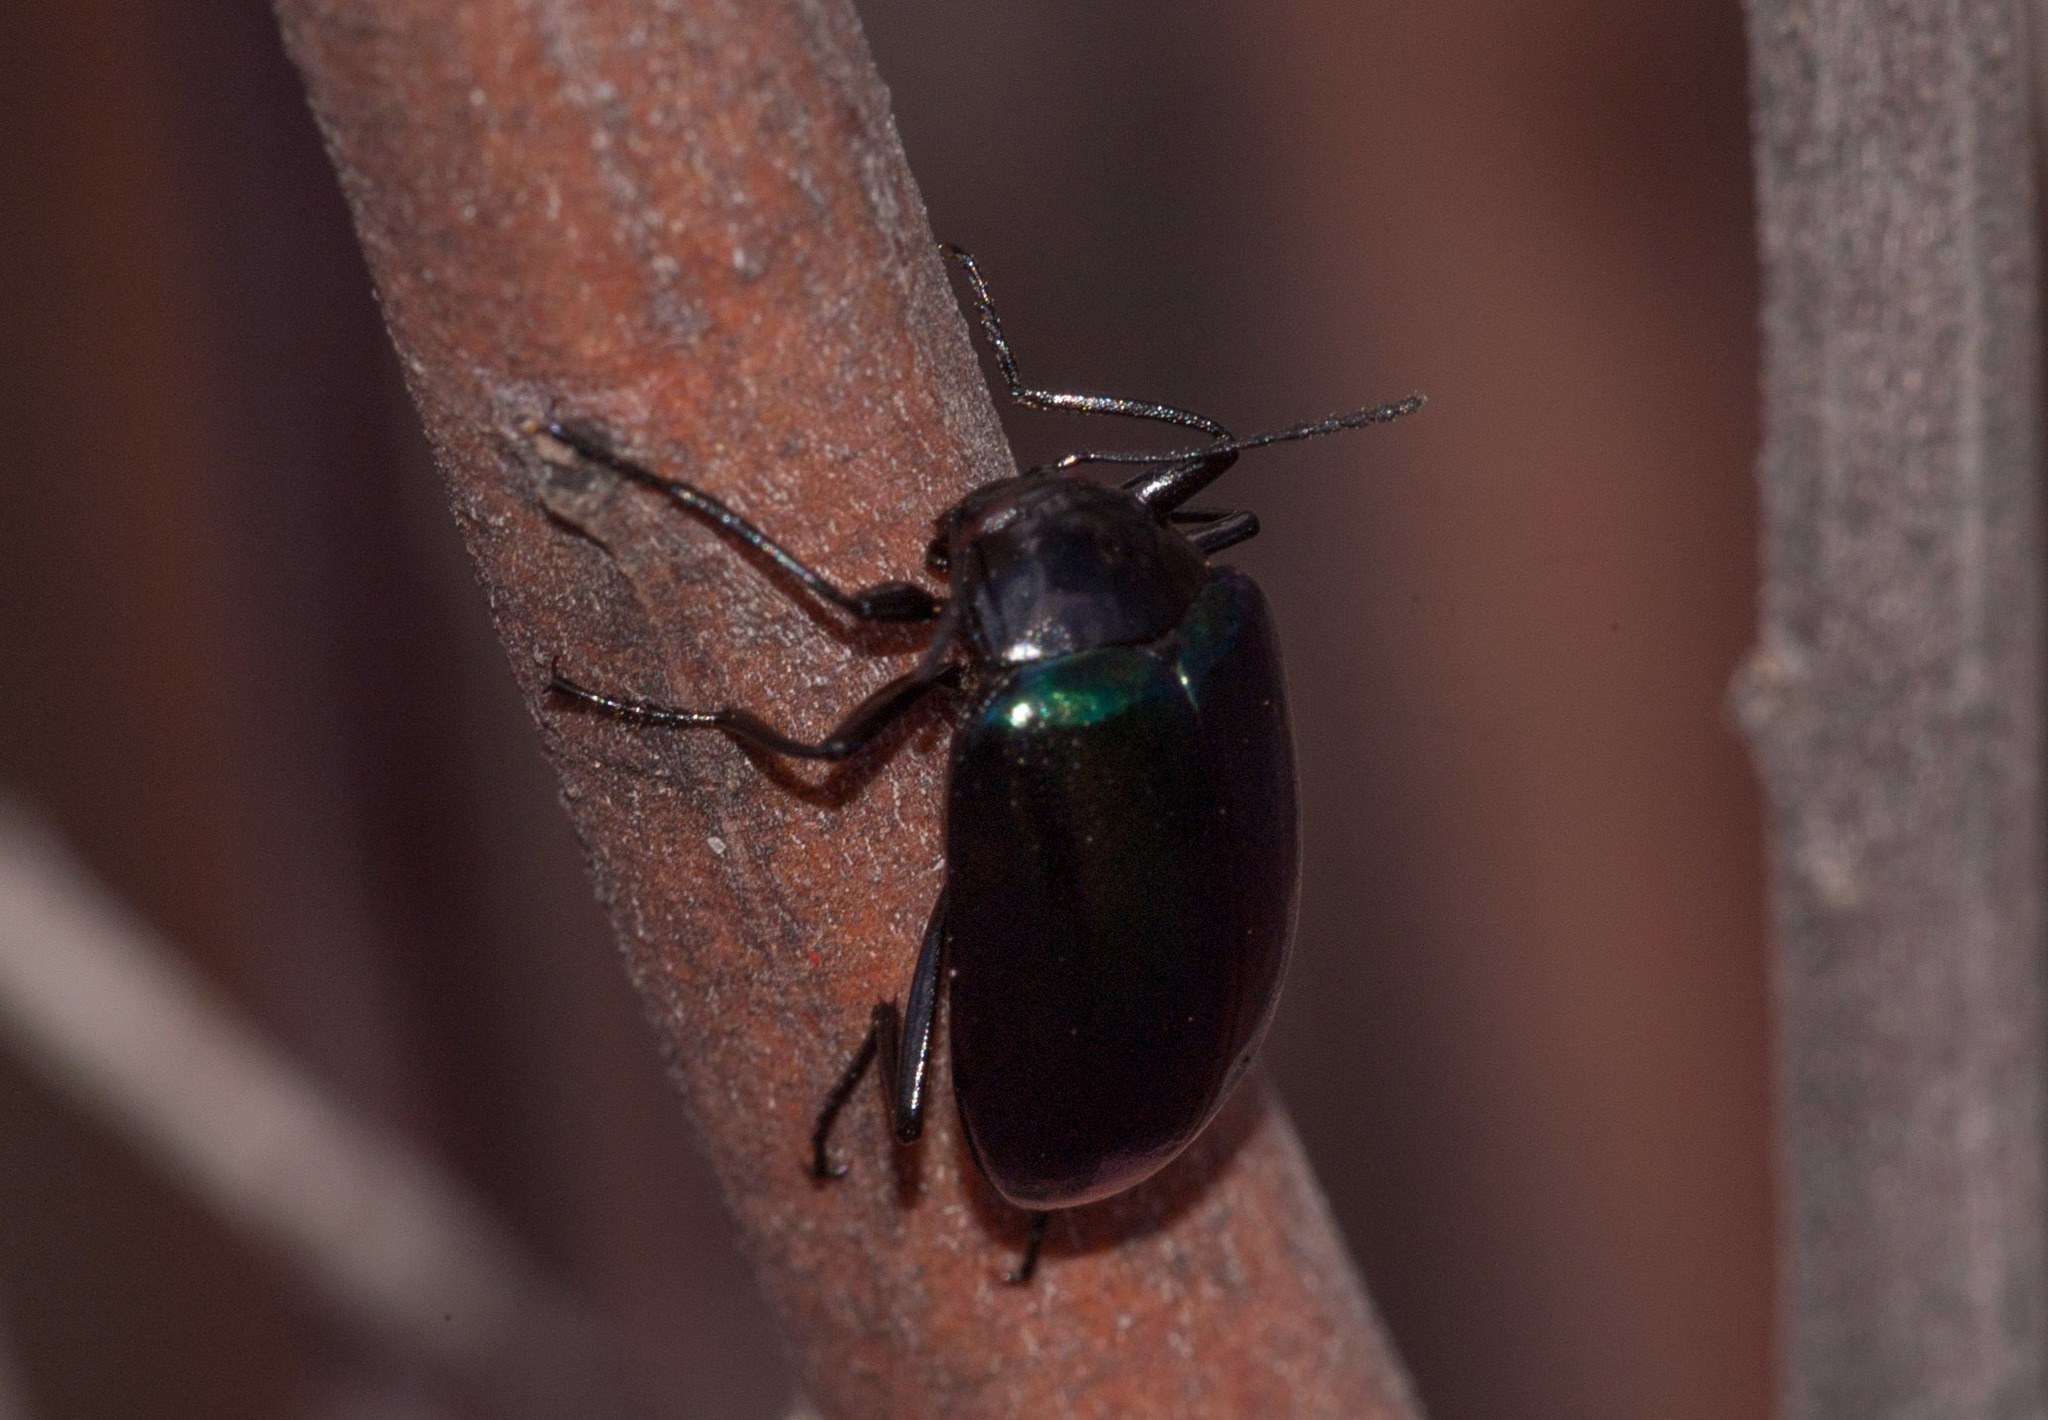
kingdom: Animalia
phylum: Arthropoda
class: Insecta
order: Coleoptera
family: Tenebrionidae
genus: Chalcopteroides
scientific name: Chalcopteroides
